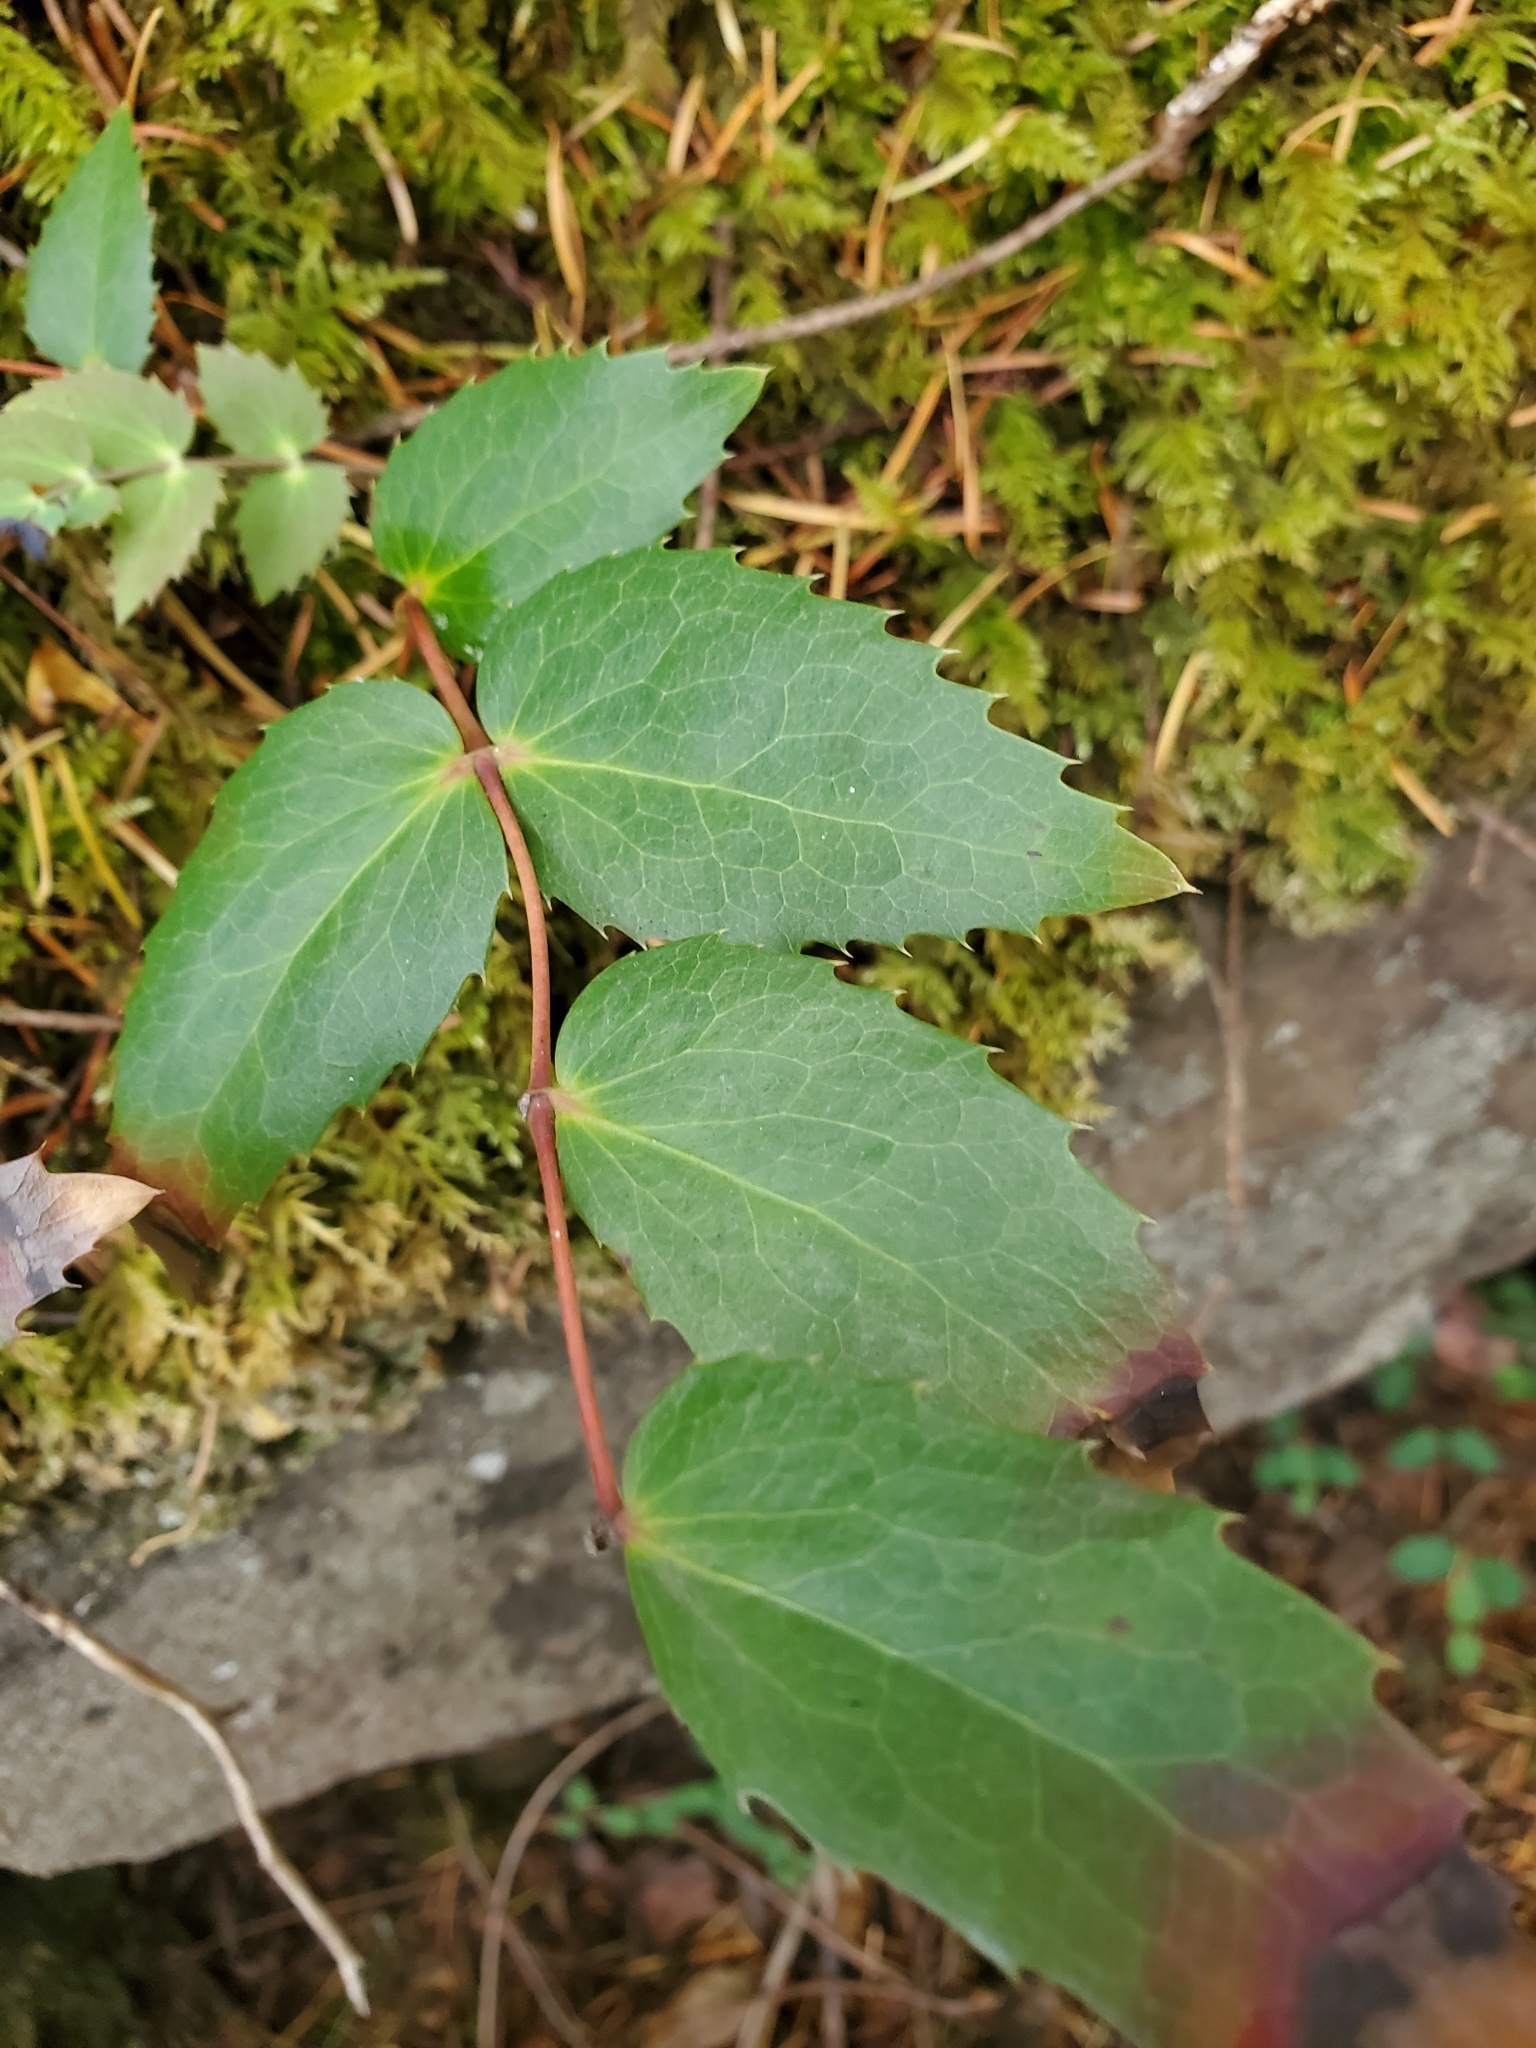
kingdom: Plantae
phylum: Tracheophyta
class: Magnoliopsida
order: Ranunculales
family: Berberidaceae
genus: Mahonia
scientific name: Mahonia nervosa
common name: Cascade oregon-grape
